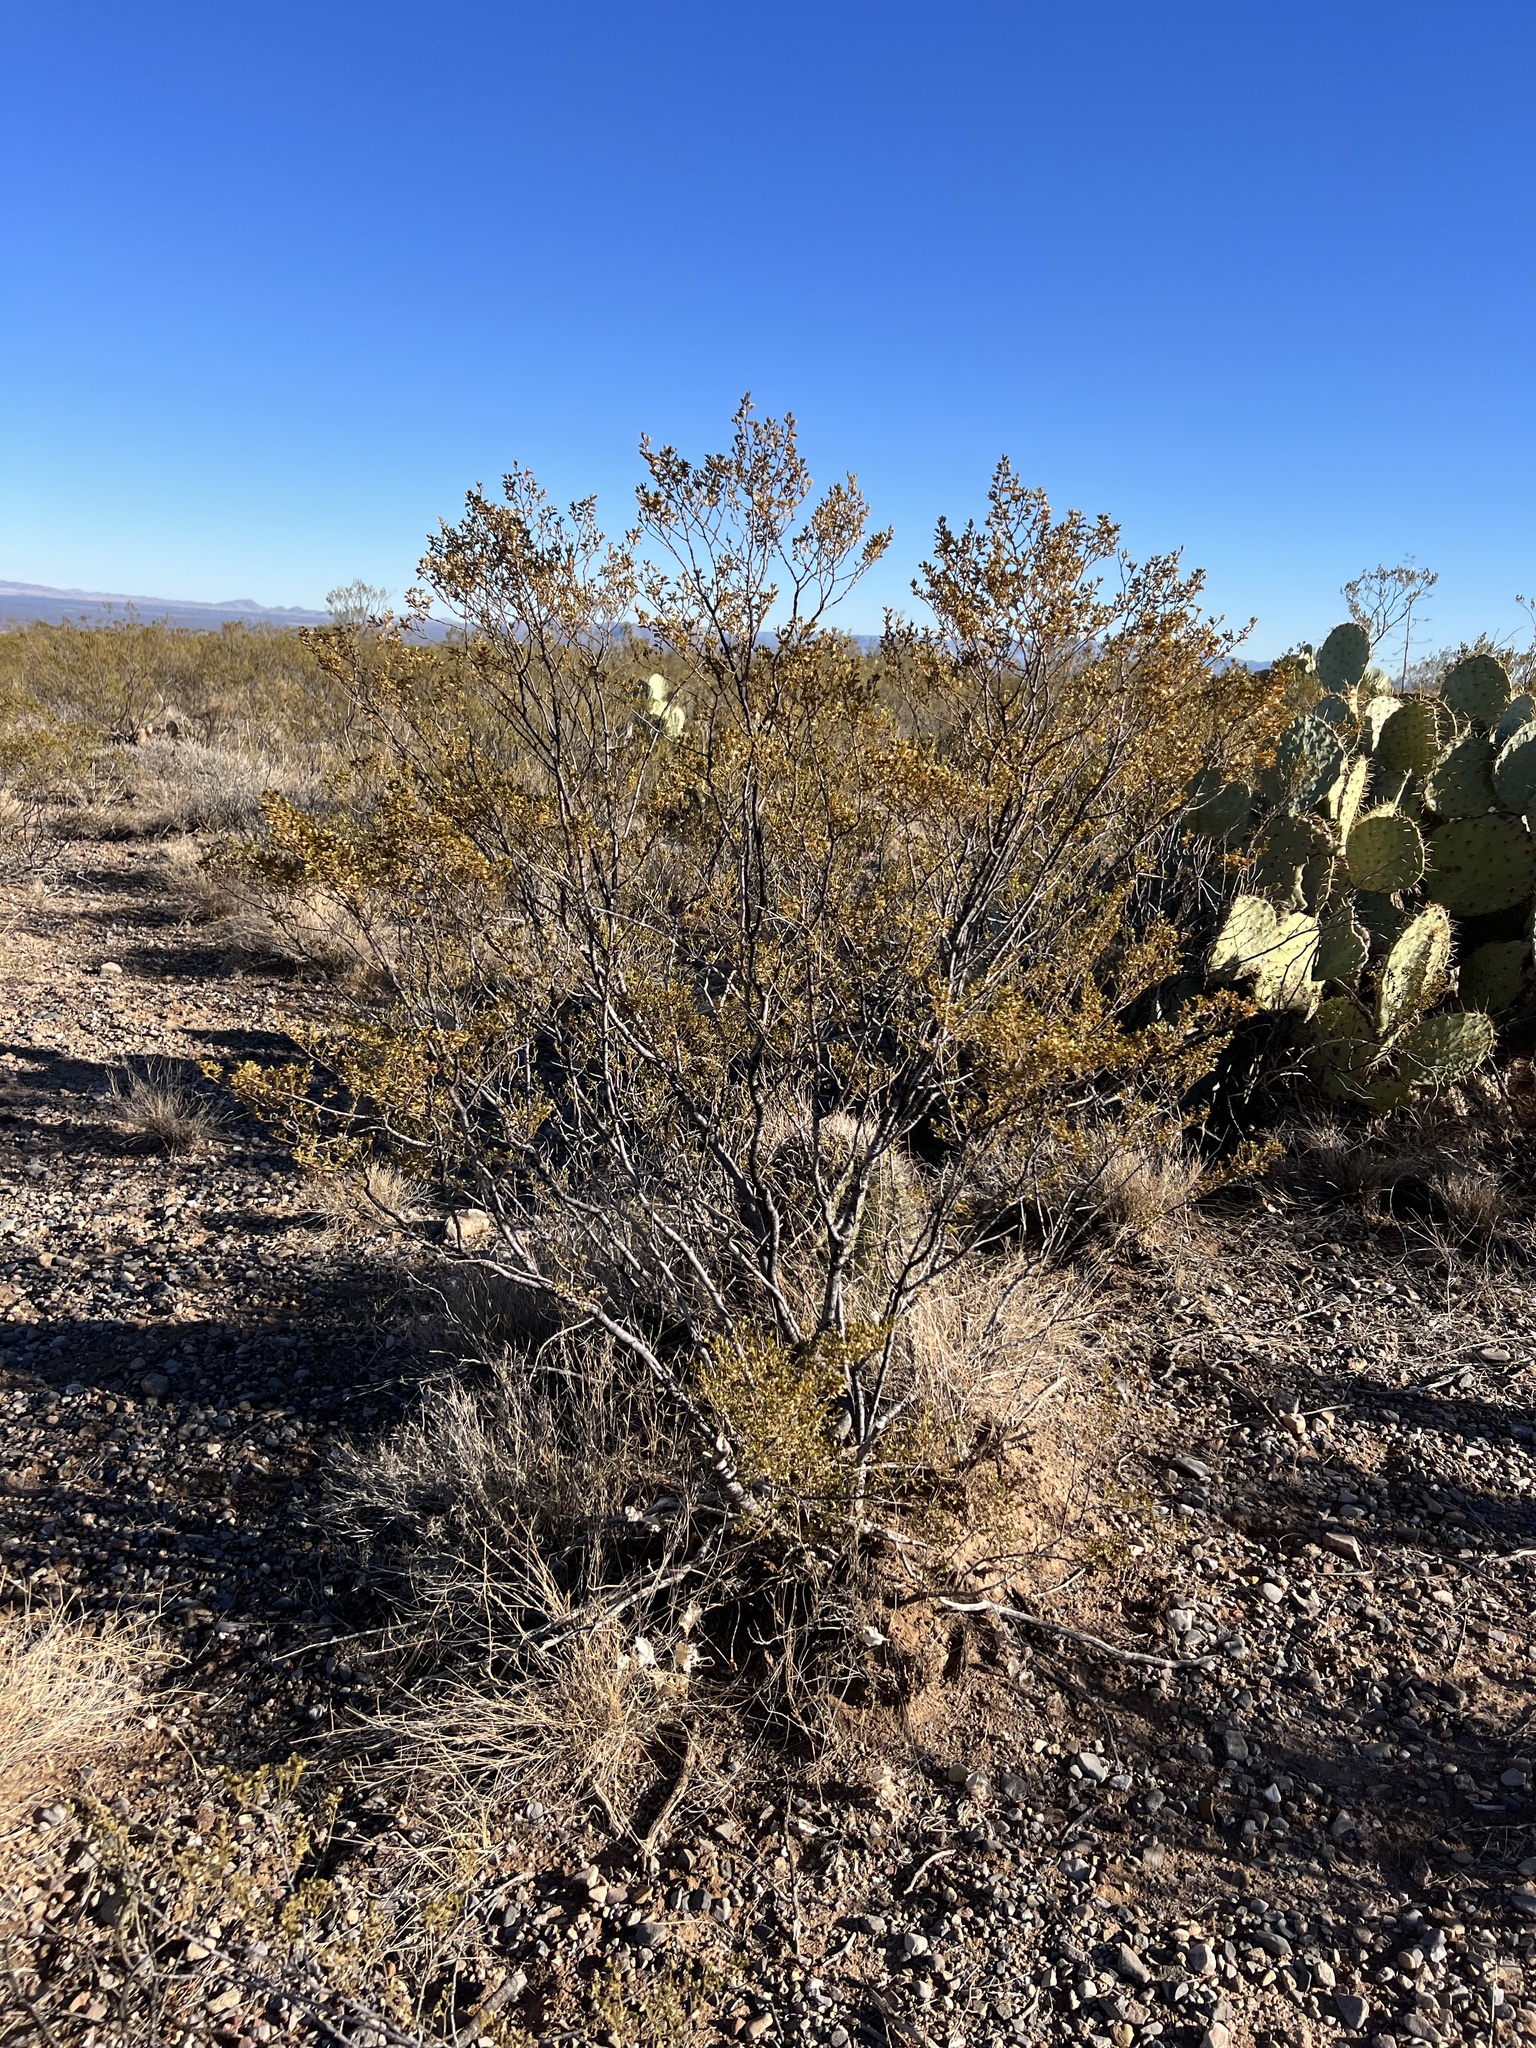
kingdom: Plantae
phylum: Tracheophyta
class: Magnoliopsida
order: Zygophyllales
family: Zygophyllaceae
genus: Larrea
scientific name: Larrea tridentata
